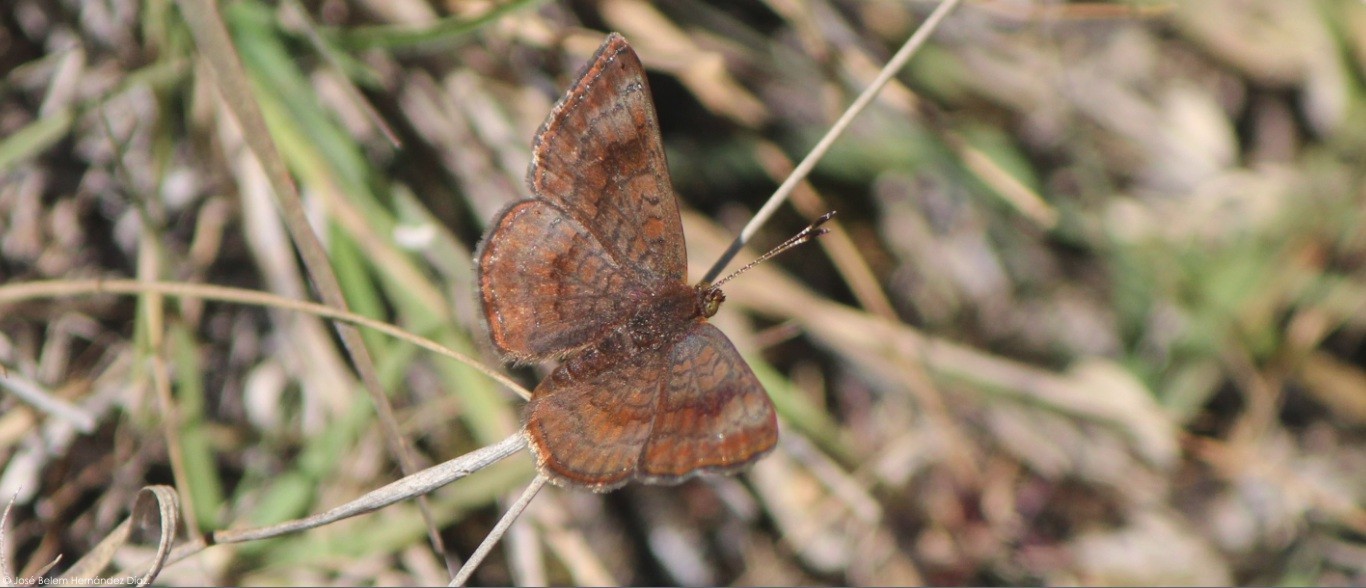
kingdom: Animalia
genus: Calephelis
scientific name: Calephelis mexicana
